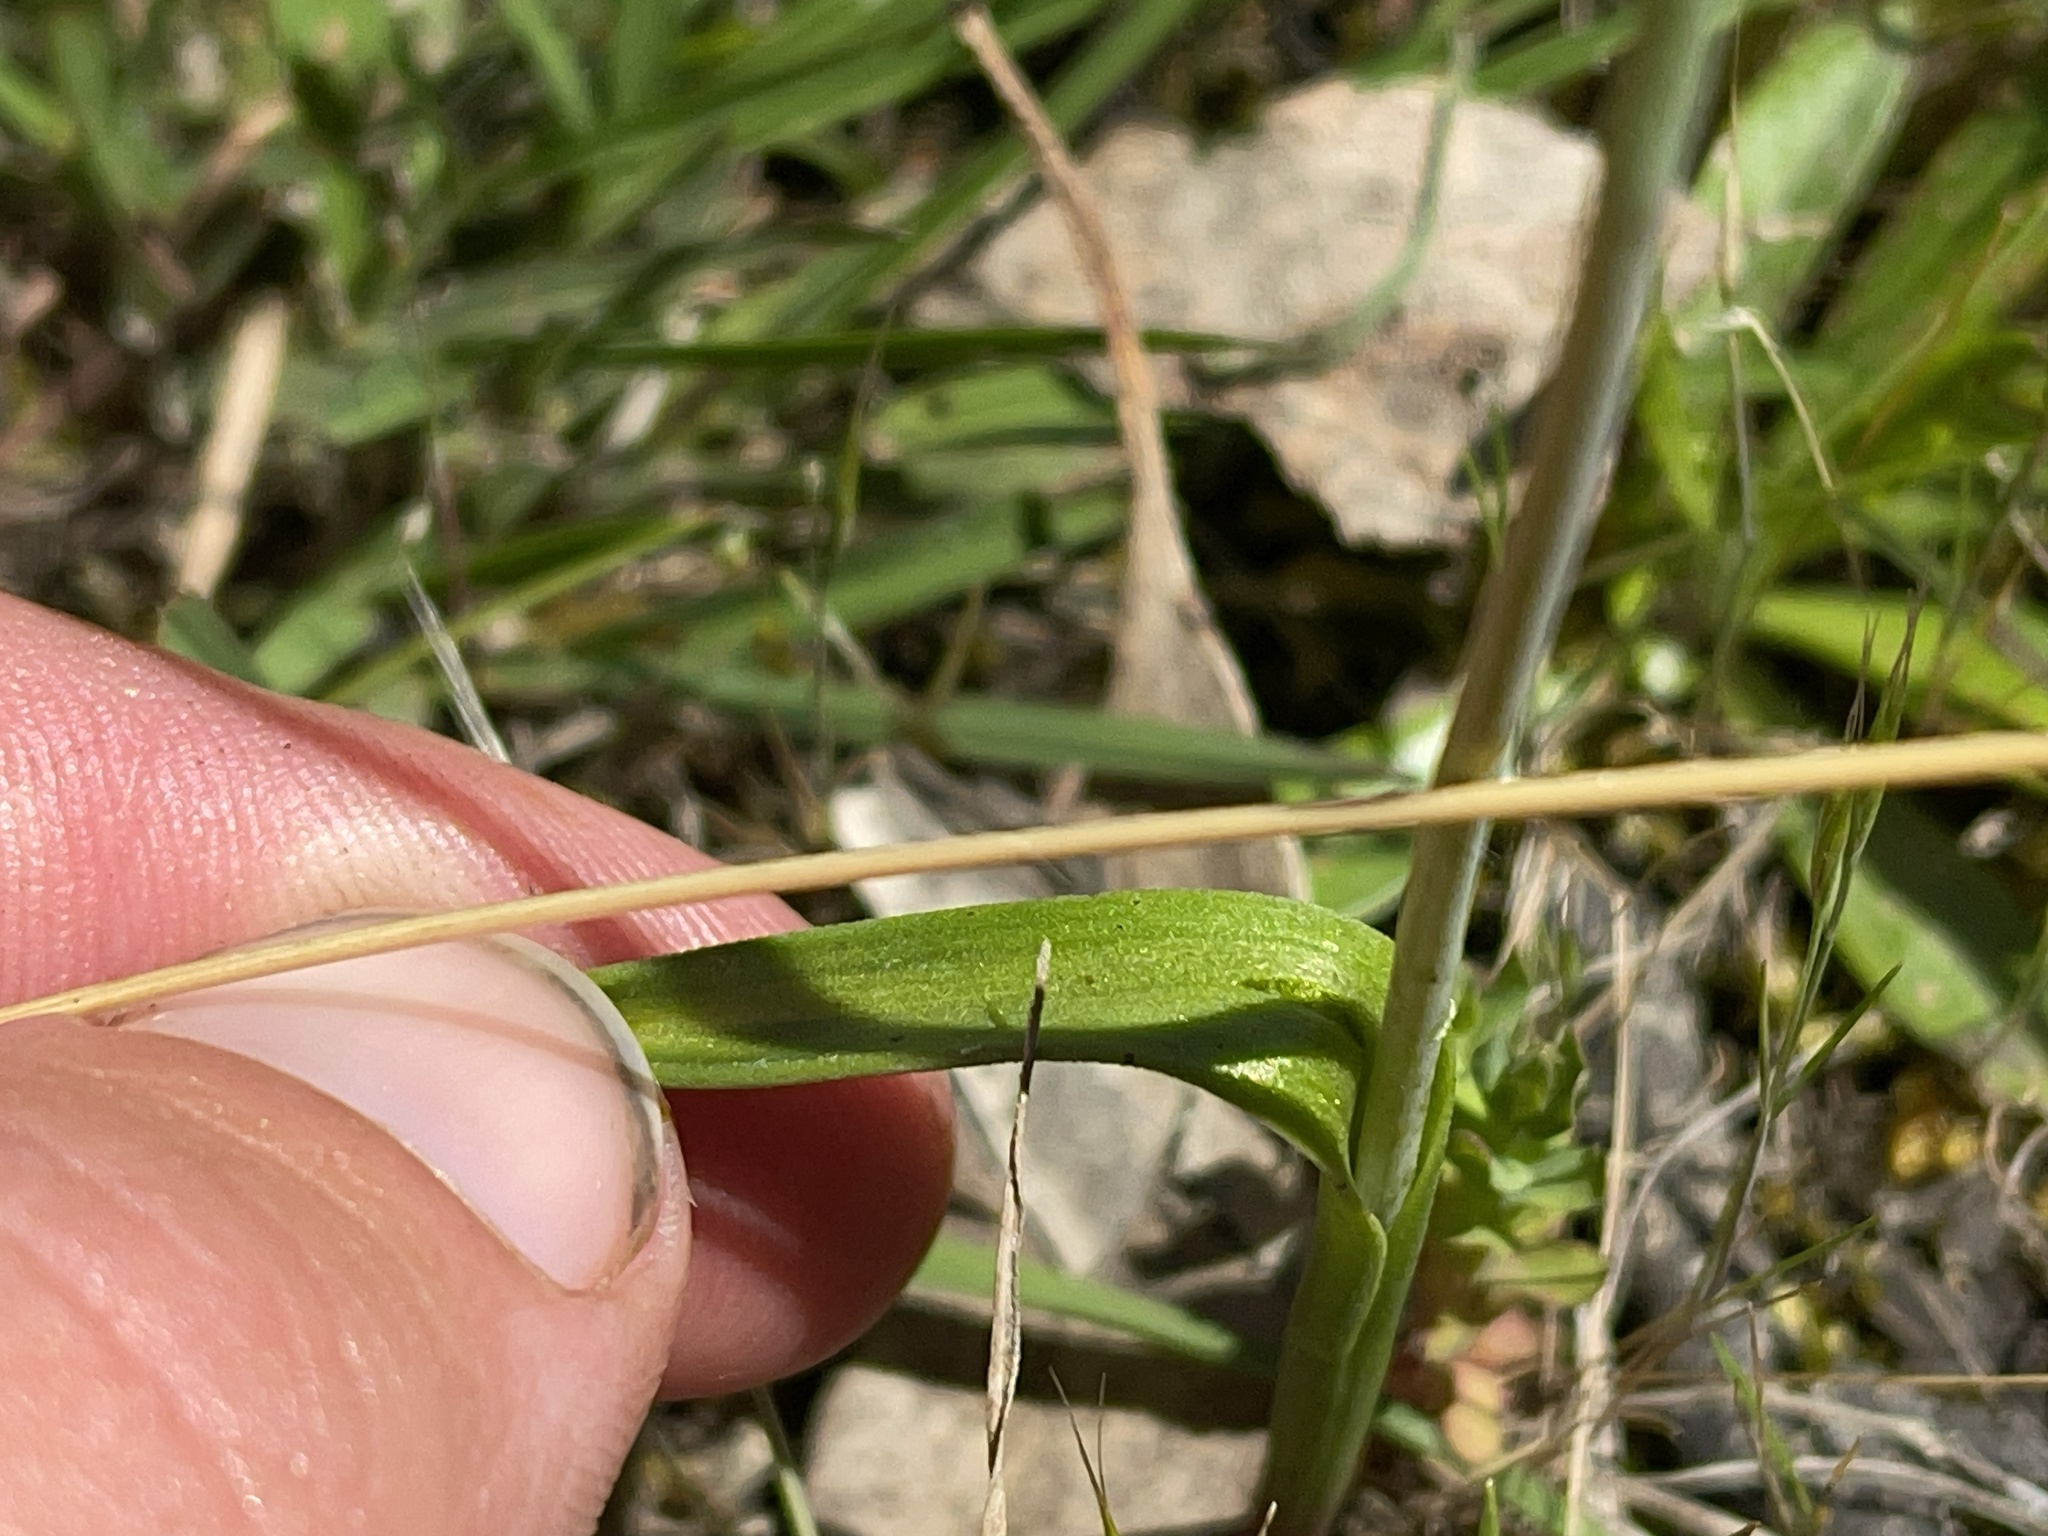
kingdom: Plantae
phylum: Tracheophyta
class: Liliopsida
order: Asparagales
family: Orchidaceae
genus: Thelymitra
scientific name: Thelymitra arenaria
